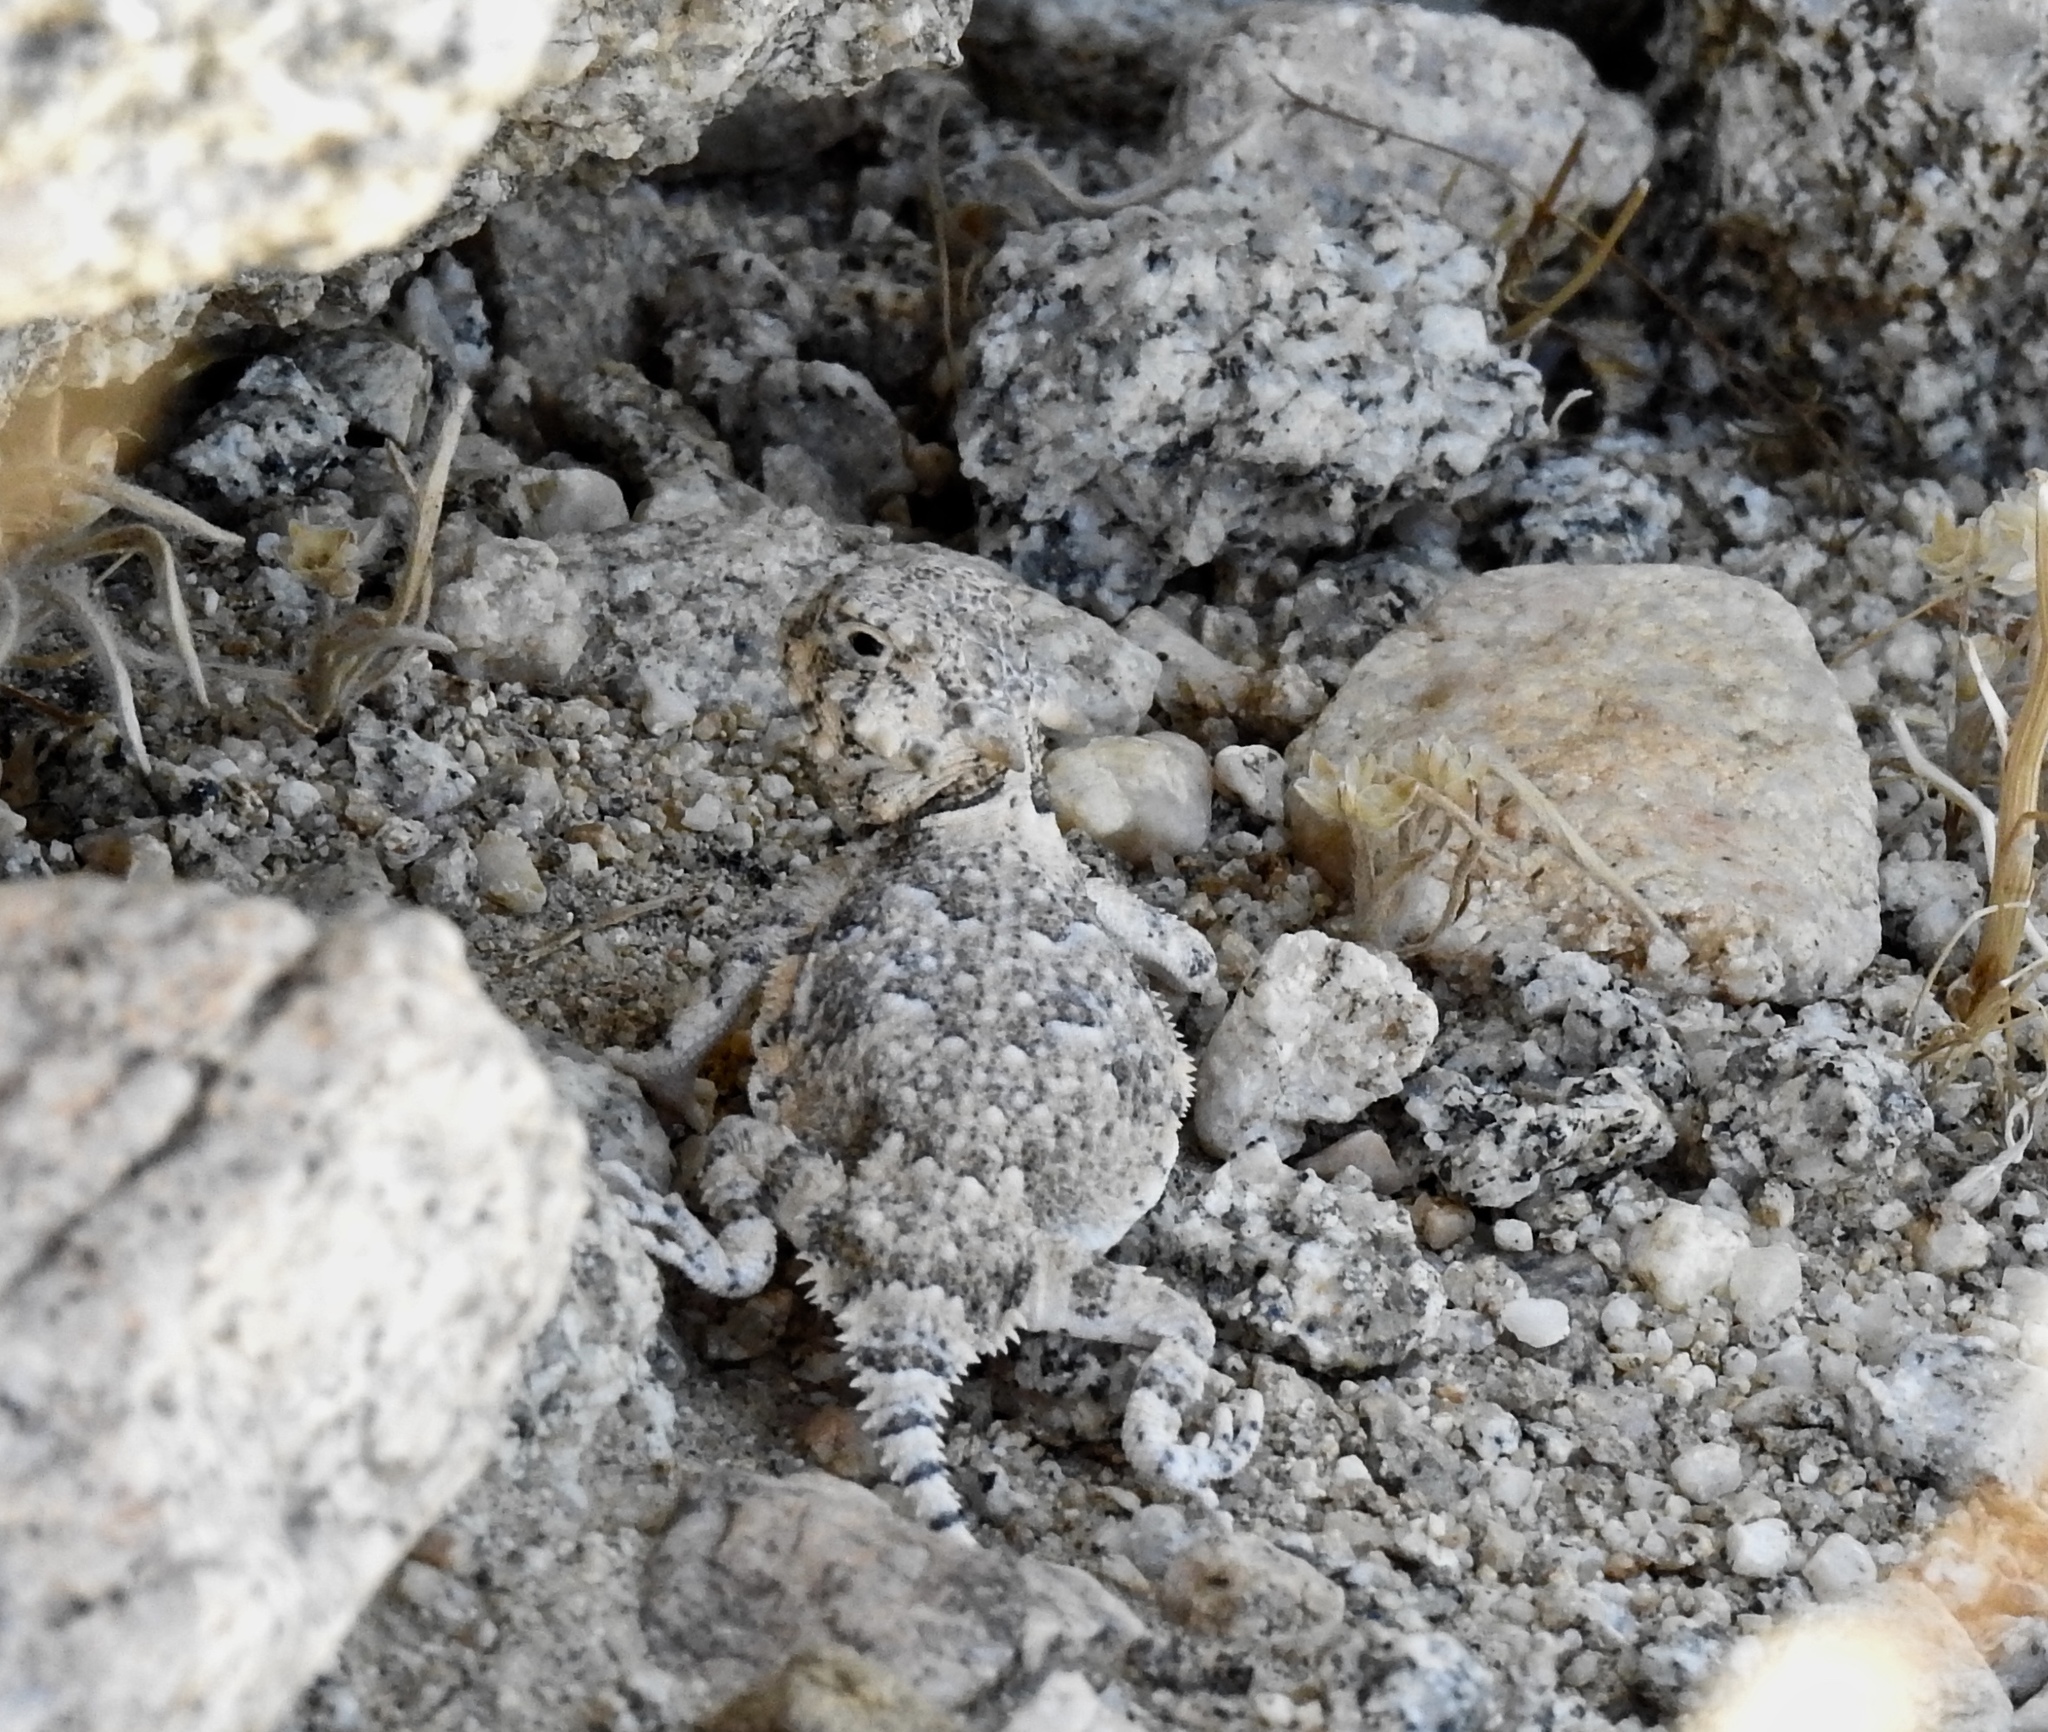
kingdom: Animalia
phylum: Chordata
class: Squamata
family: Phrynosomatidae
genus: Phrynosoma
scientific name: Phrynosoma platyrhinos
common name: Desert horned lizard
